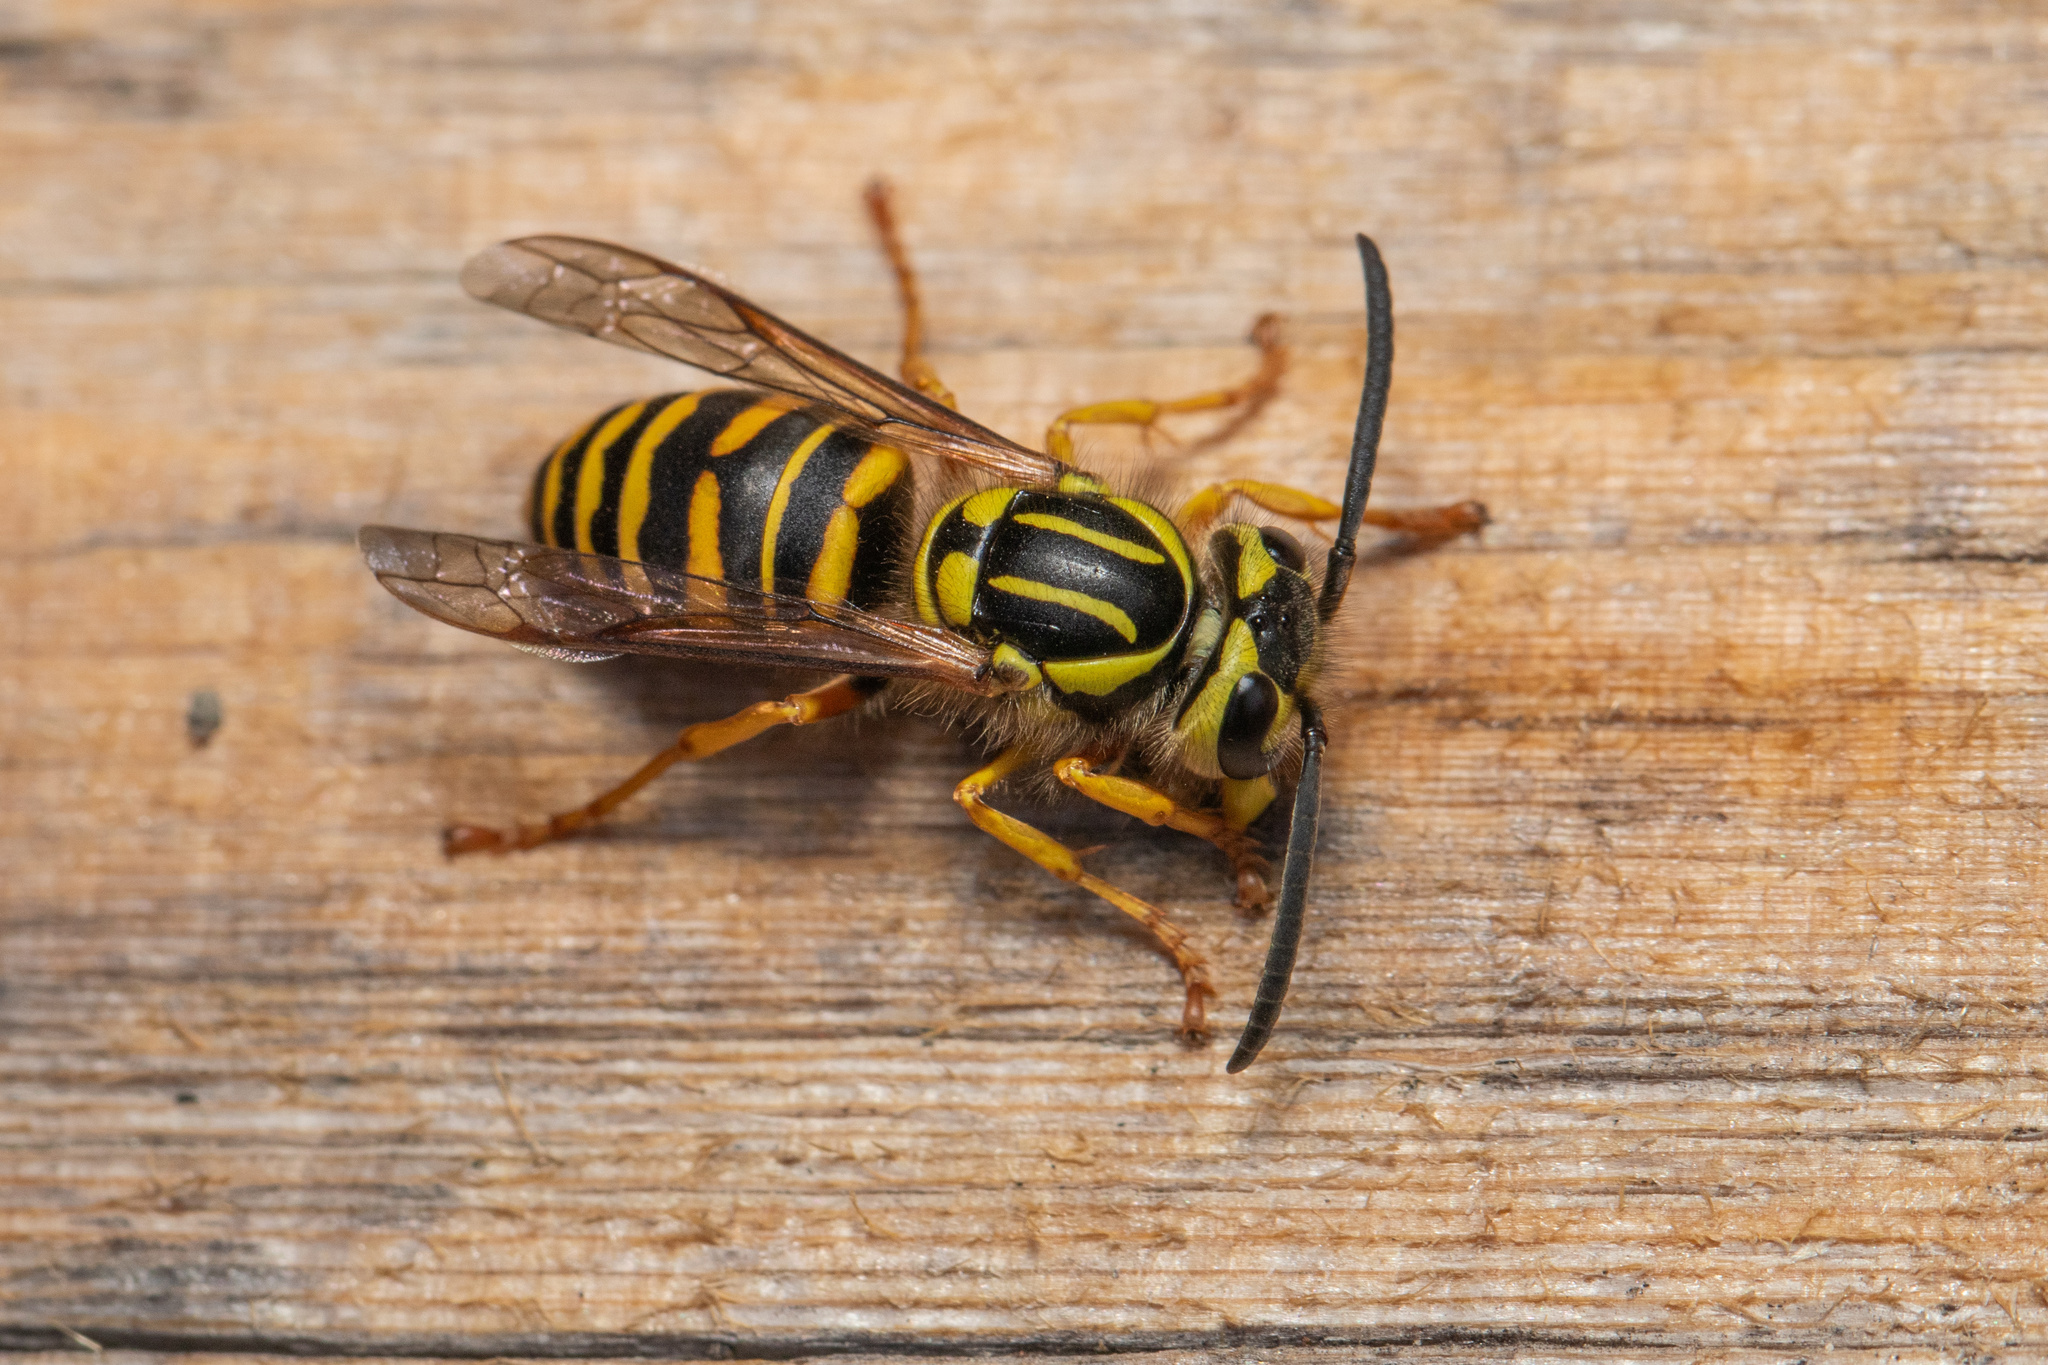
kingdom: Animalia
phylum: Arthropoda
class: Insecta
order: Hymenoptera
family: Vespidae
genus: Vespula
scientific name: Vespula squamosa
